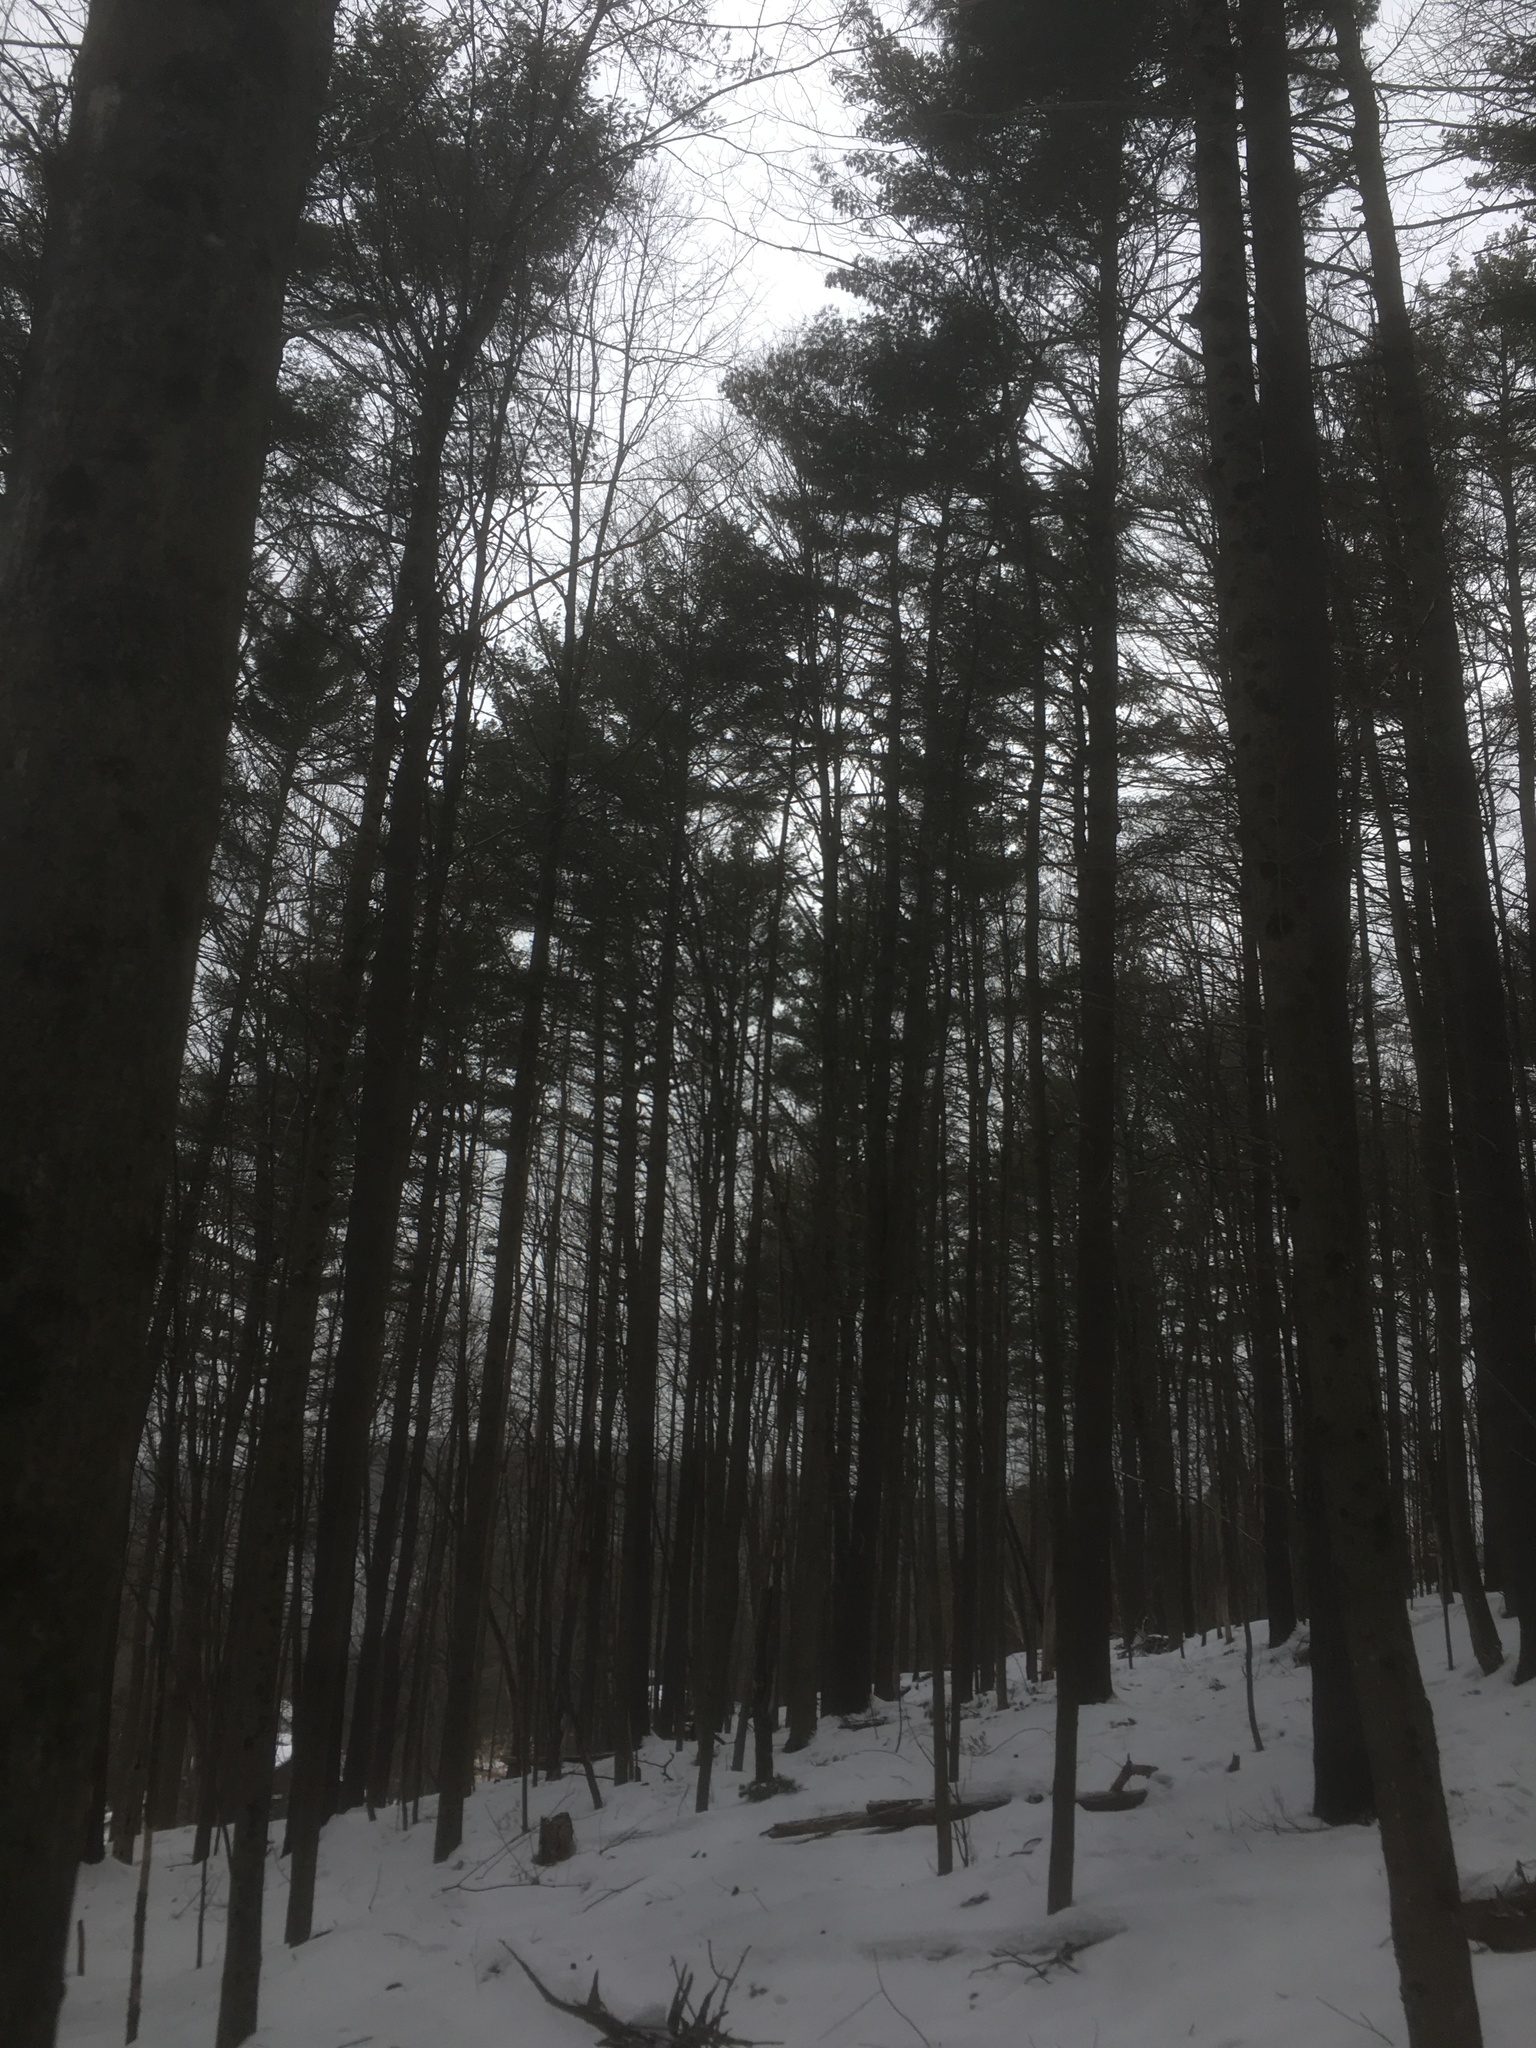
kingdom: Plantae
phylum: Tracheophyta
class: Pinopsida
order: Pinales
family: Pinaceae
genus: Pinus
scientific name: Pinus strobus
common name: Weymouth pine
